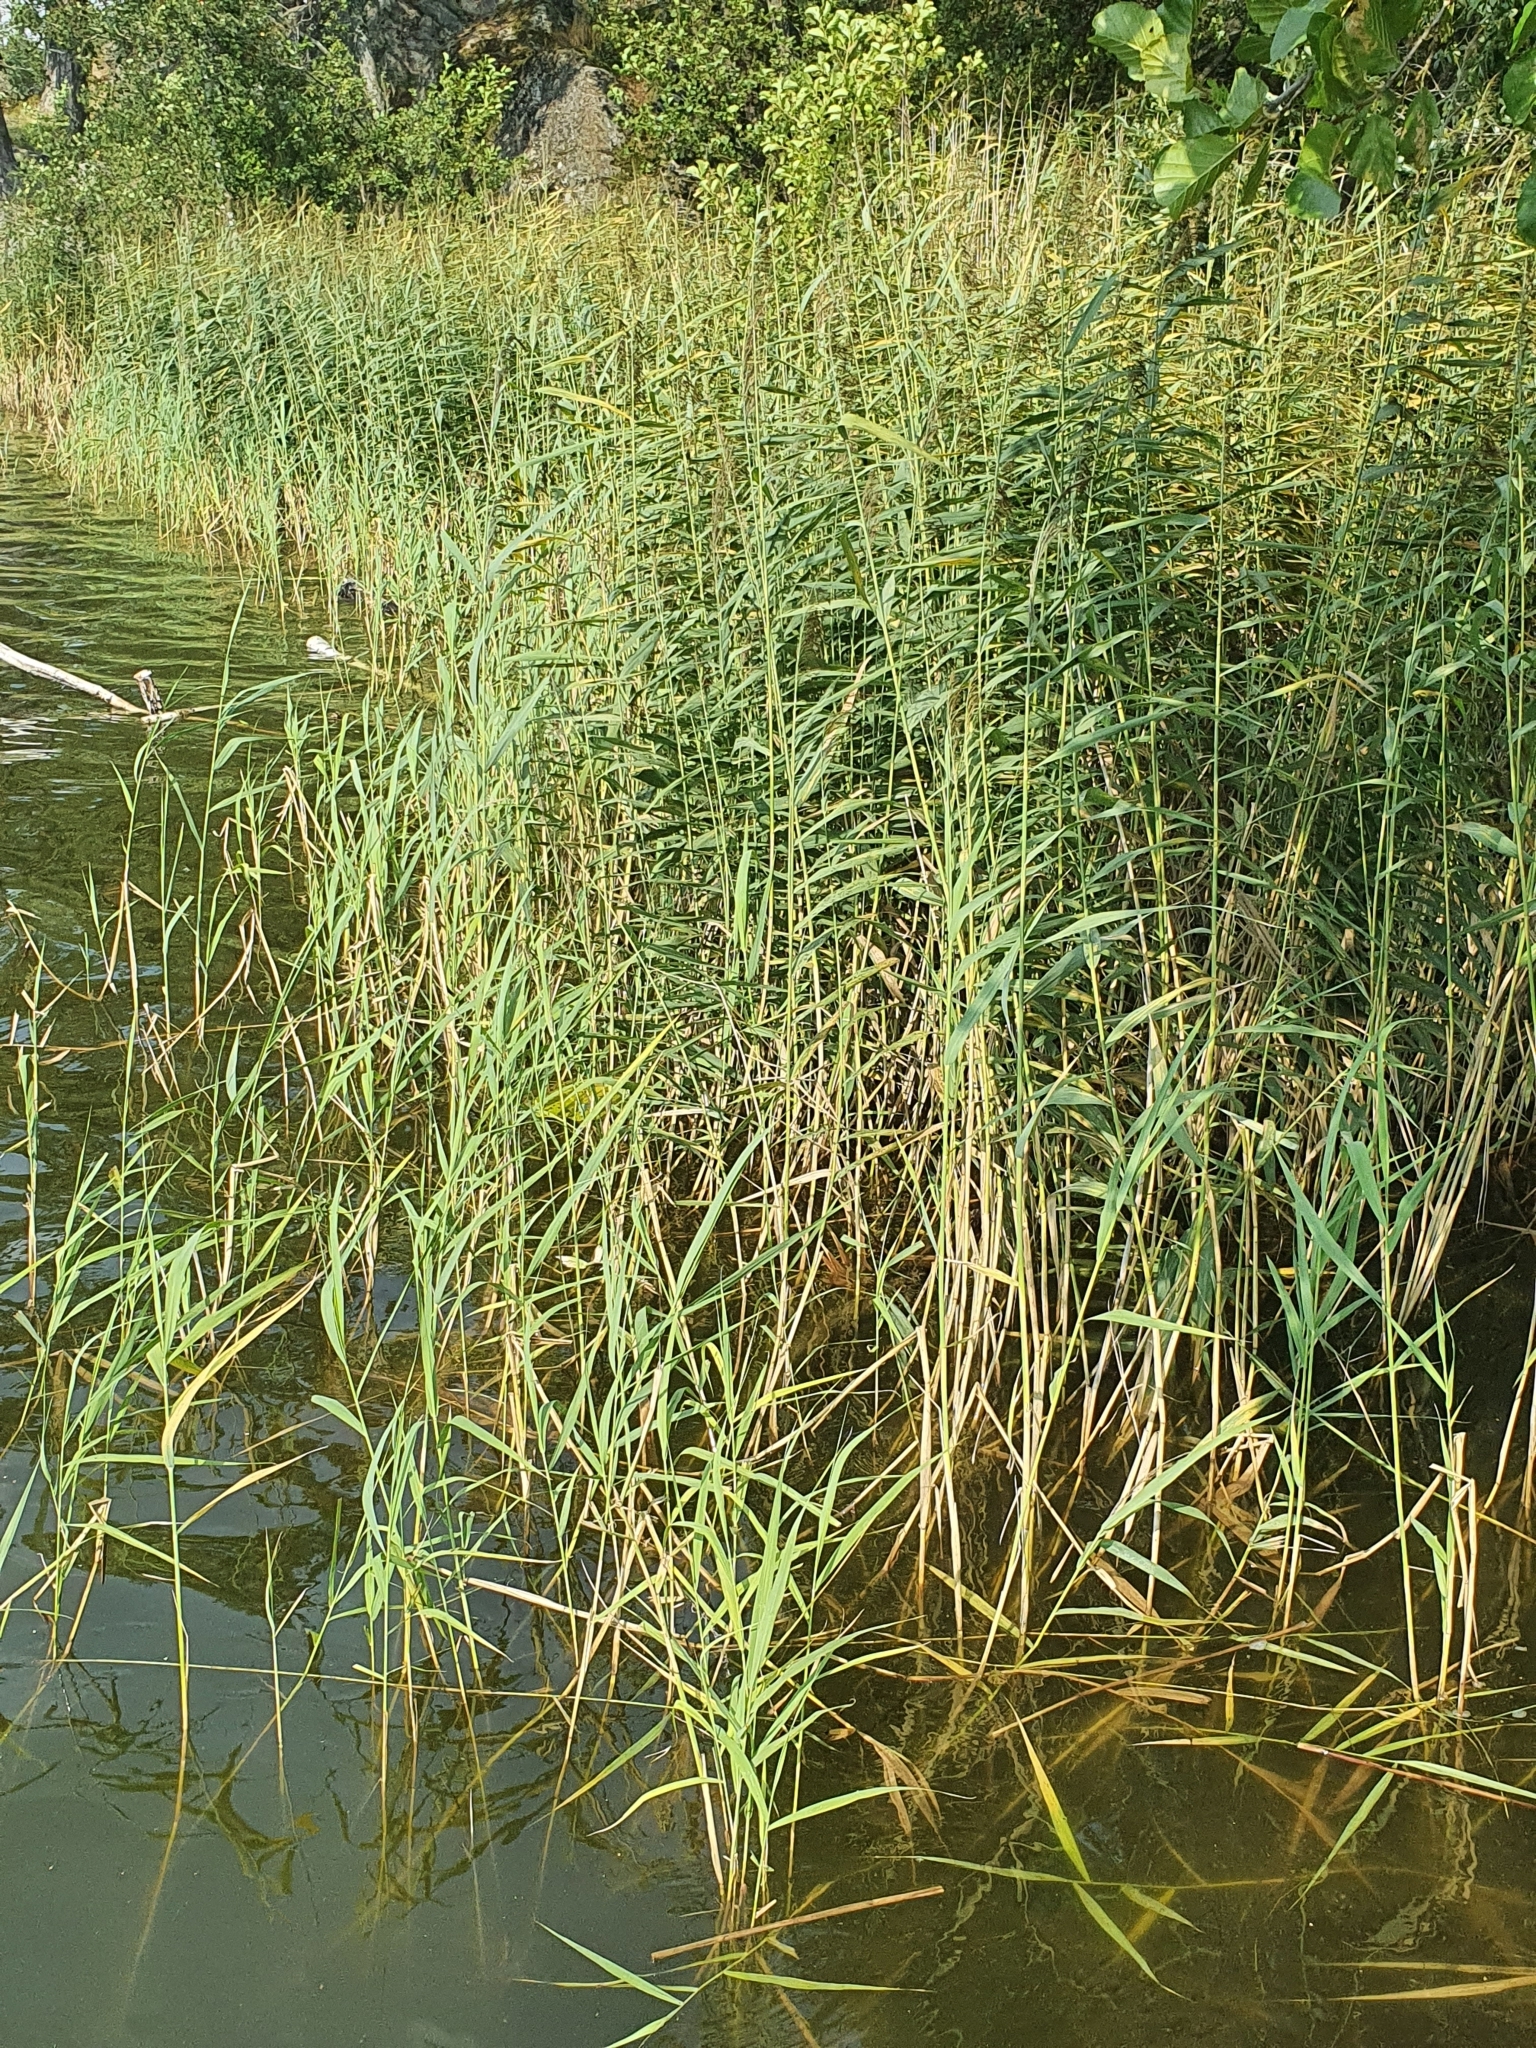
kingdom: Plantae
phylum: Tracheophyta
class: Liliopsida
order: Poales
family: Poaceae
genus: Phragmites
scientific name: Phragmites australis
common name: Common reed
